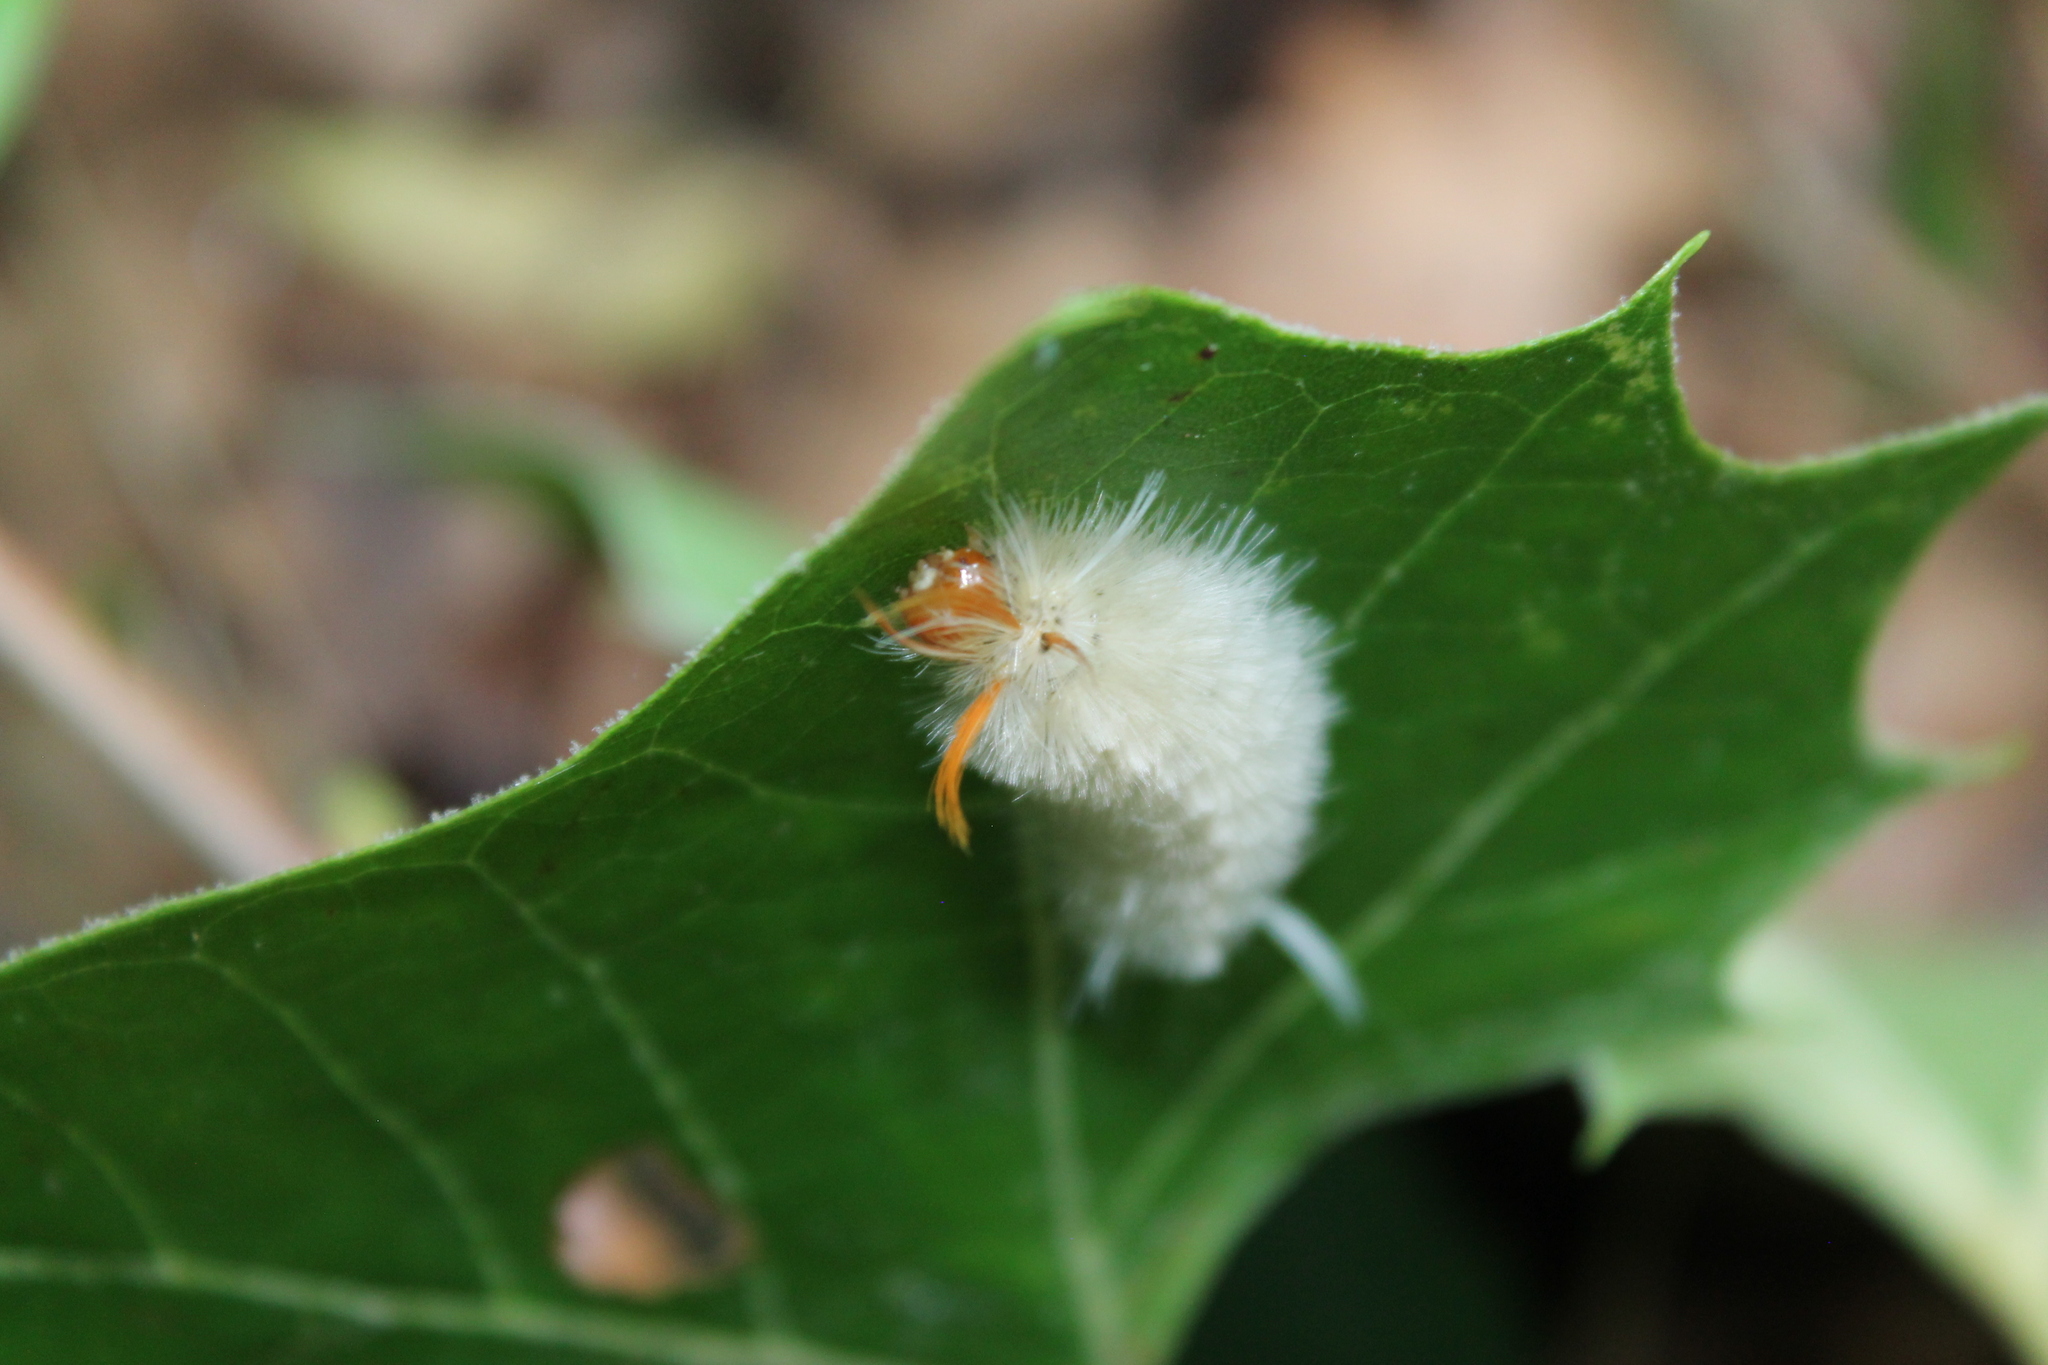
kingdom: Animalia
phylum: Arthropoda
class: Insecta
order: Lepidoptera
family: Erebidae
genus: Halysidota
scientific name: Halysidota harrisii
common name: Sycamore tussock moth
